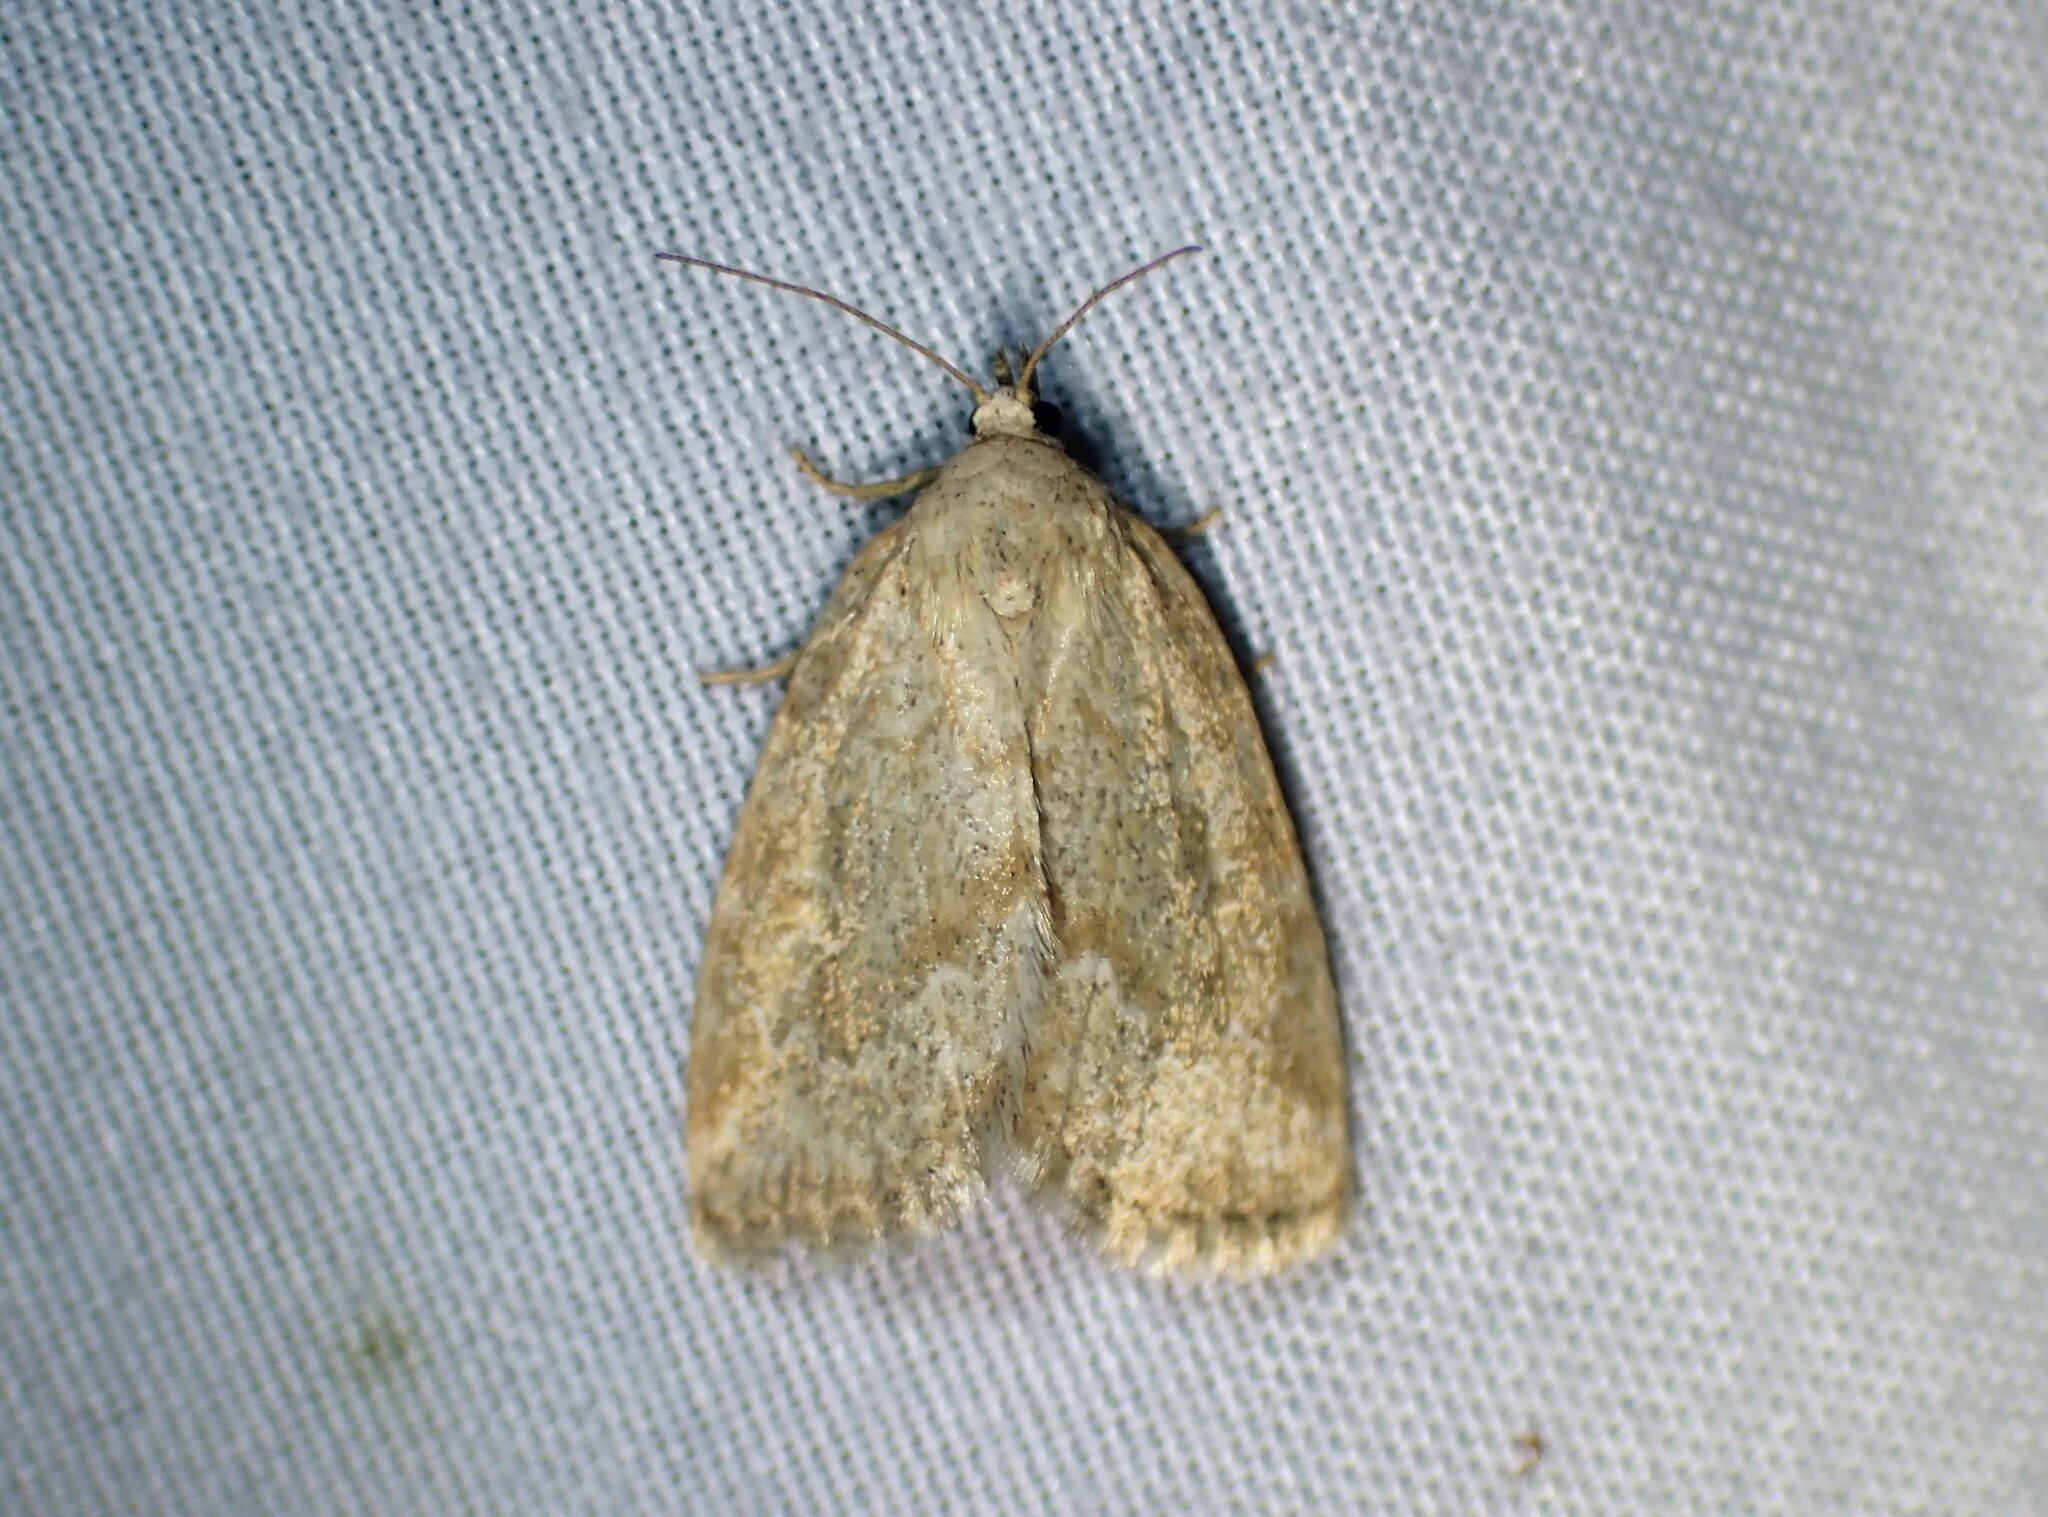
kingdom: Animalia
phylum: Arthropoda
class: Insecta
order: Lepidoptera
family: Noctuidae
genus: Protodeltote
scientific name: Protodeltote albidula
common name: Pale glyph
